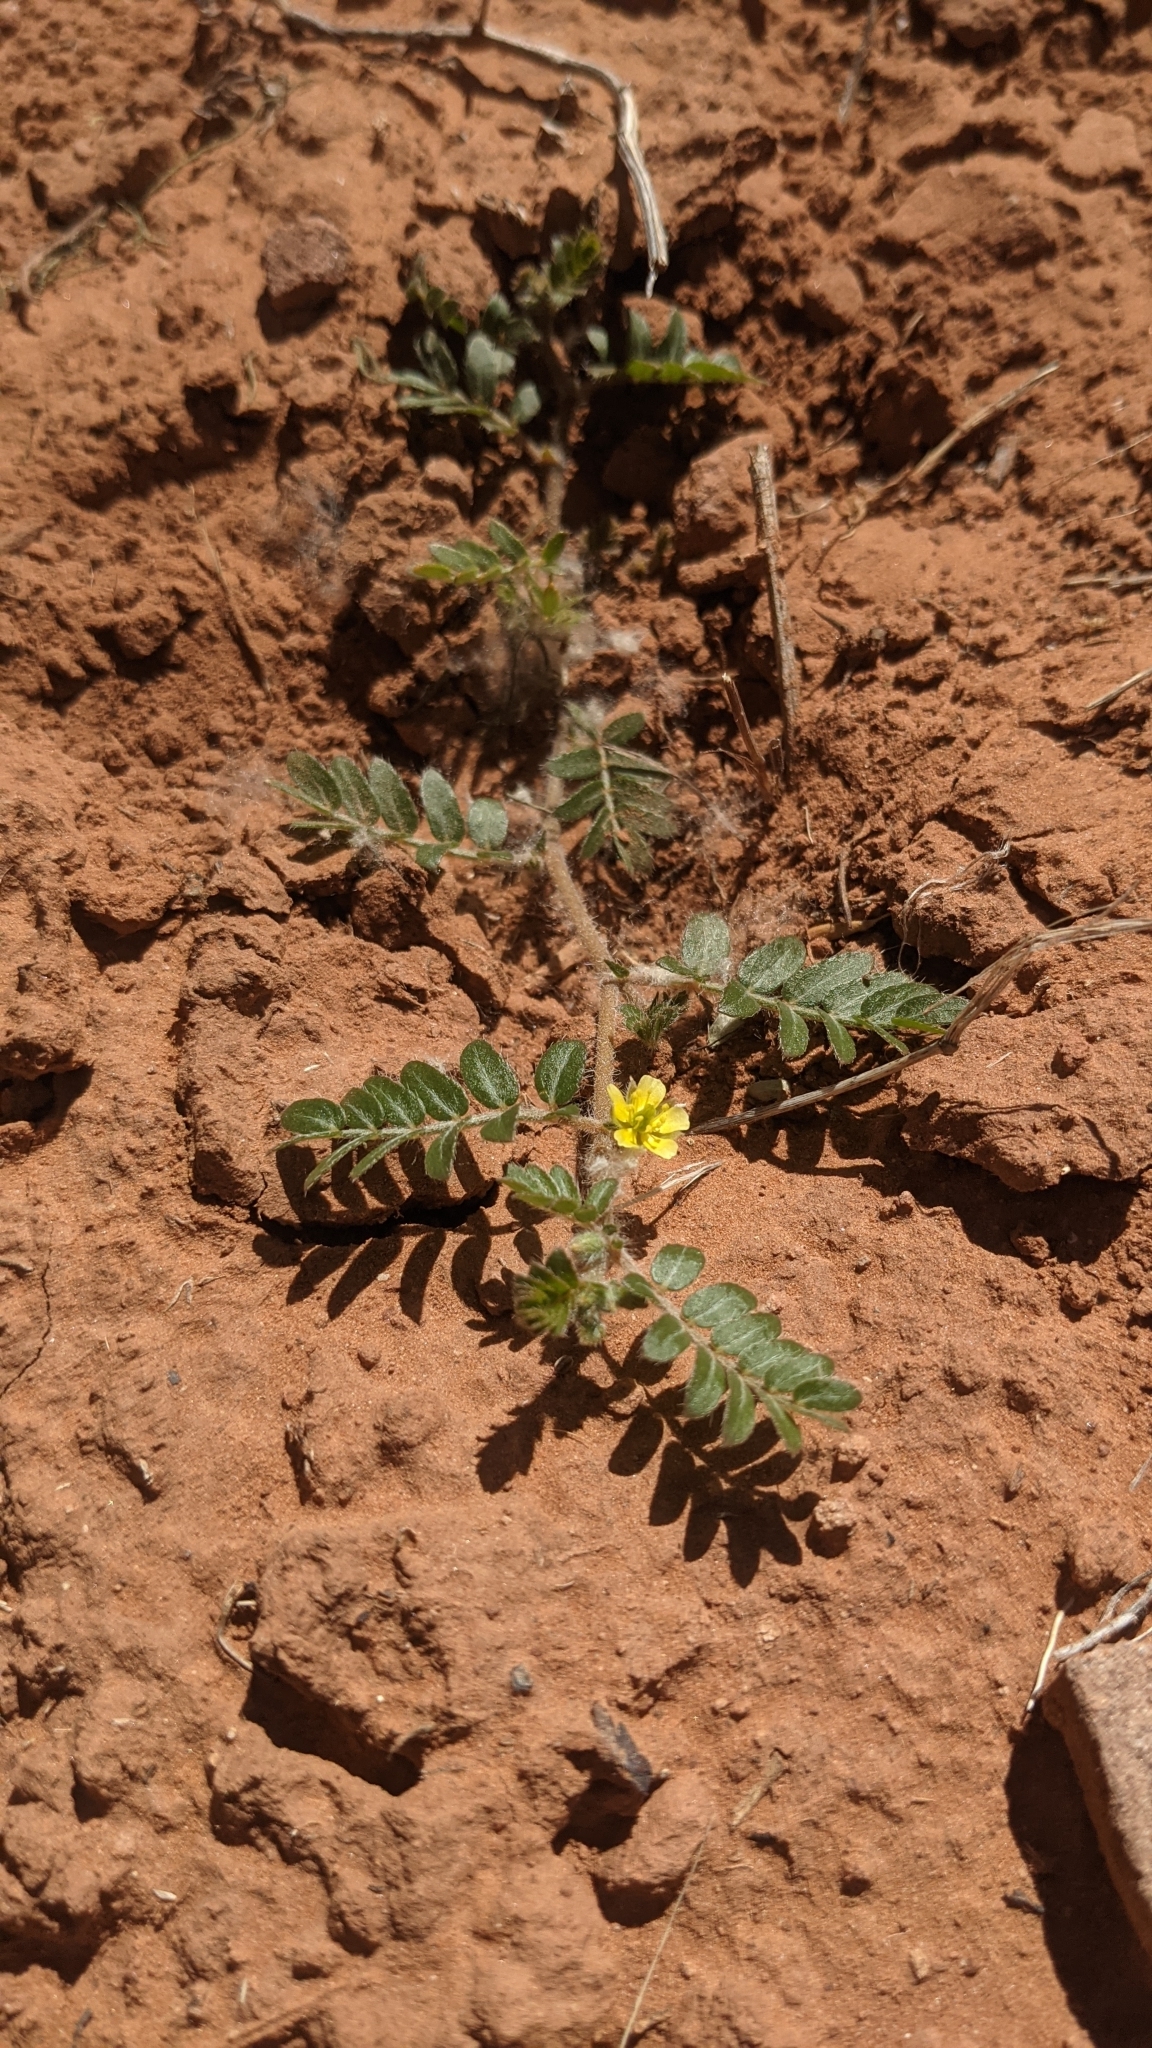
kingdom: Plantae
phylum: Tracheophyta
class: Magnoliopsida
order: Zygophyllales
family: Zygophyllaceae
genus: Tribulus
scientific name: Tribulus terrestris
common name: Puncturevine
